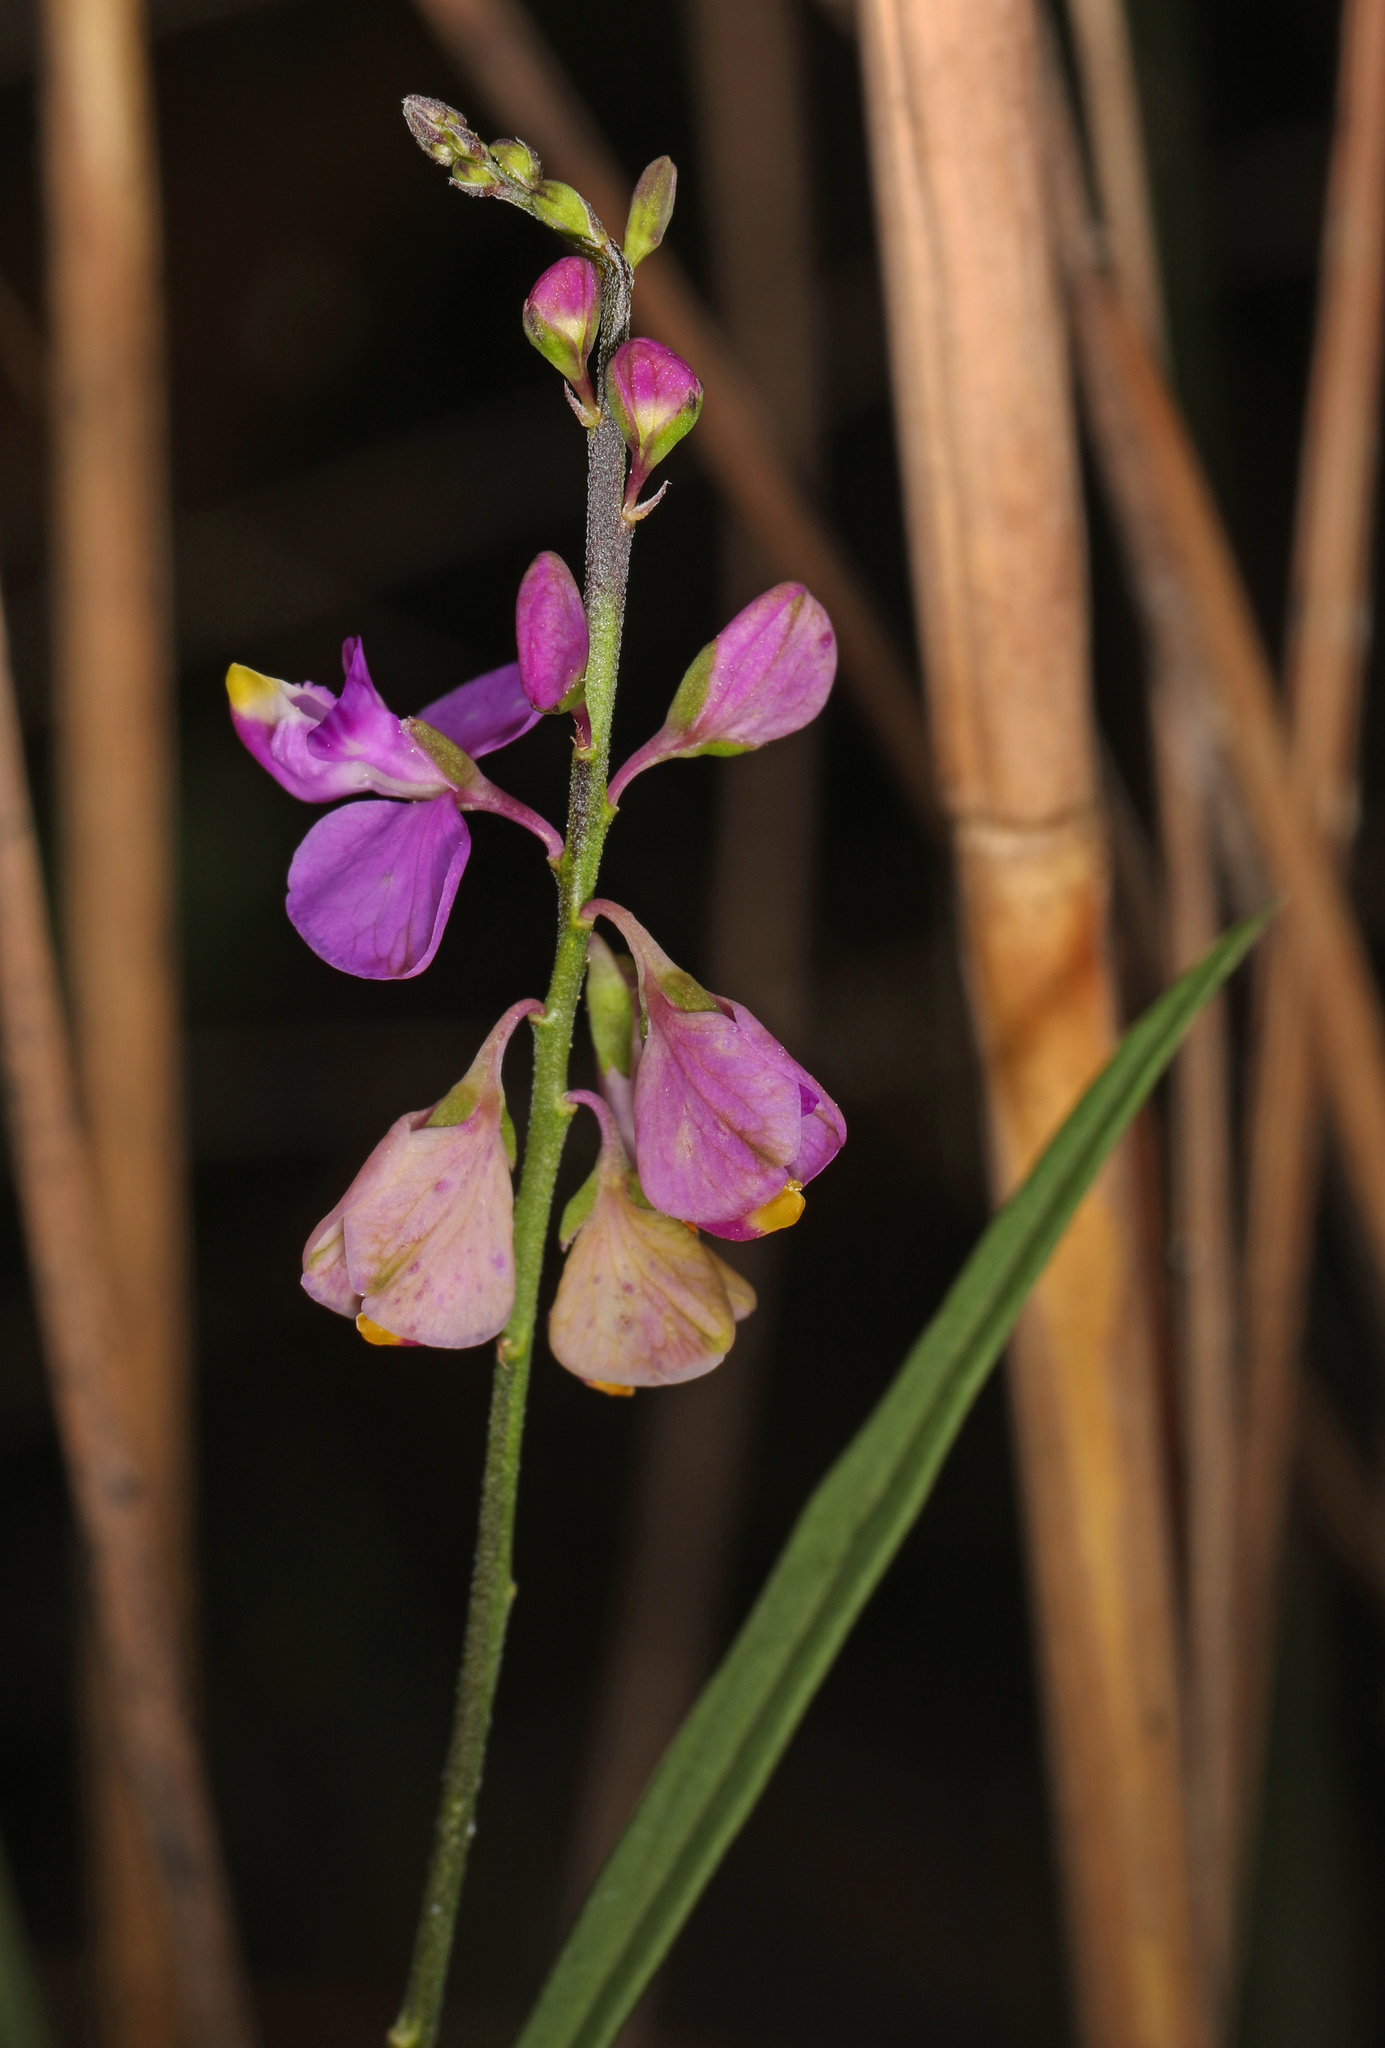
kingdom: Plantae
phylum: Tracheophyta
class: Magnoliopsida
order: Fabales
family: Polygalaceae
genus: Asemeia
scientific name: Asemeia grandiflora
